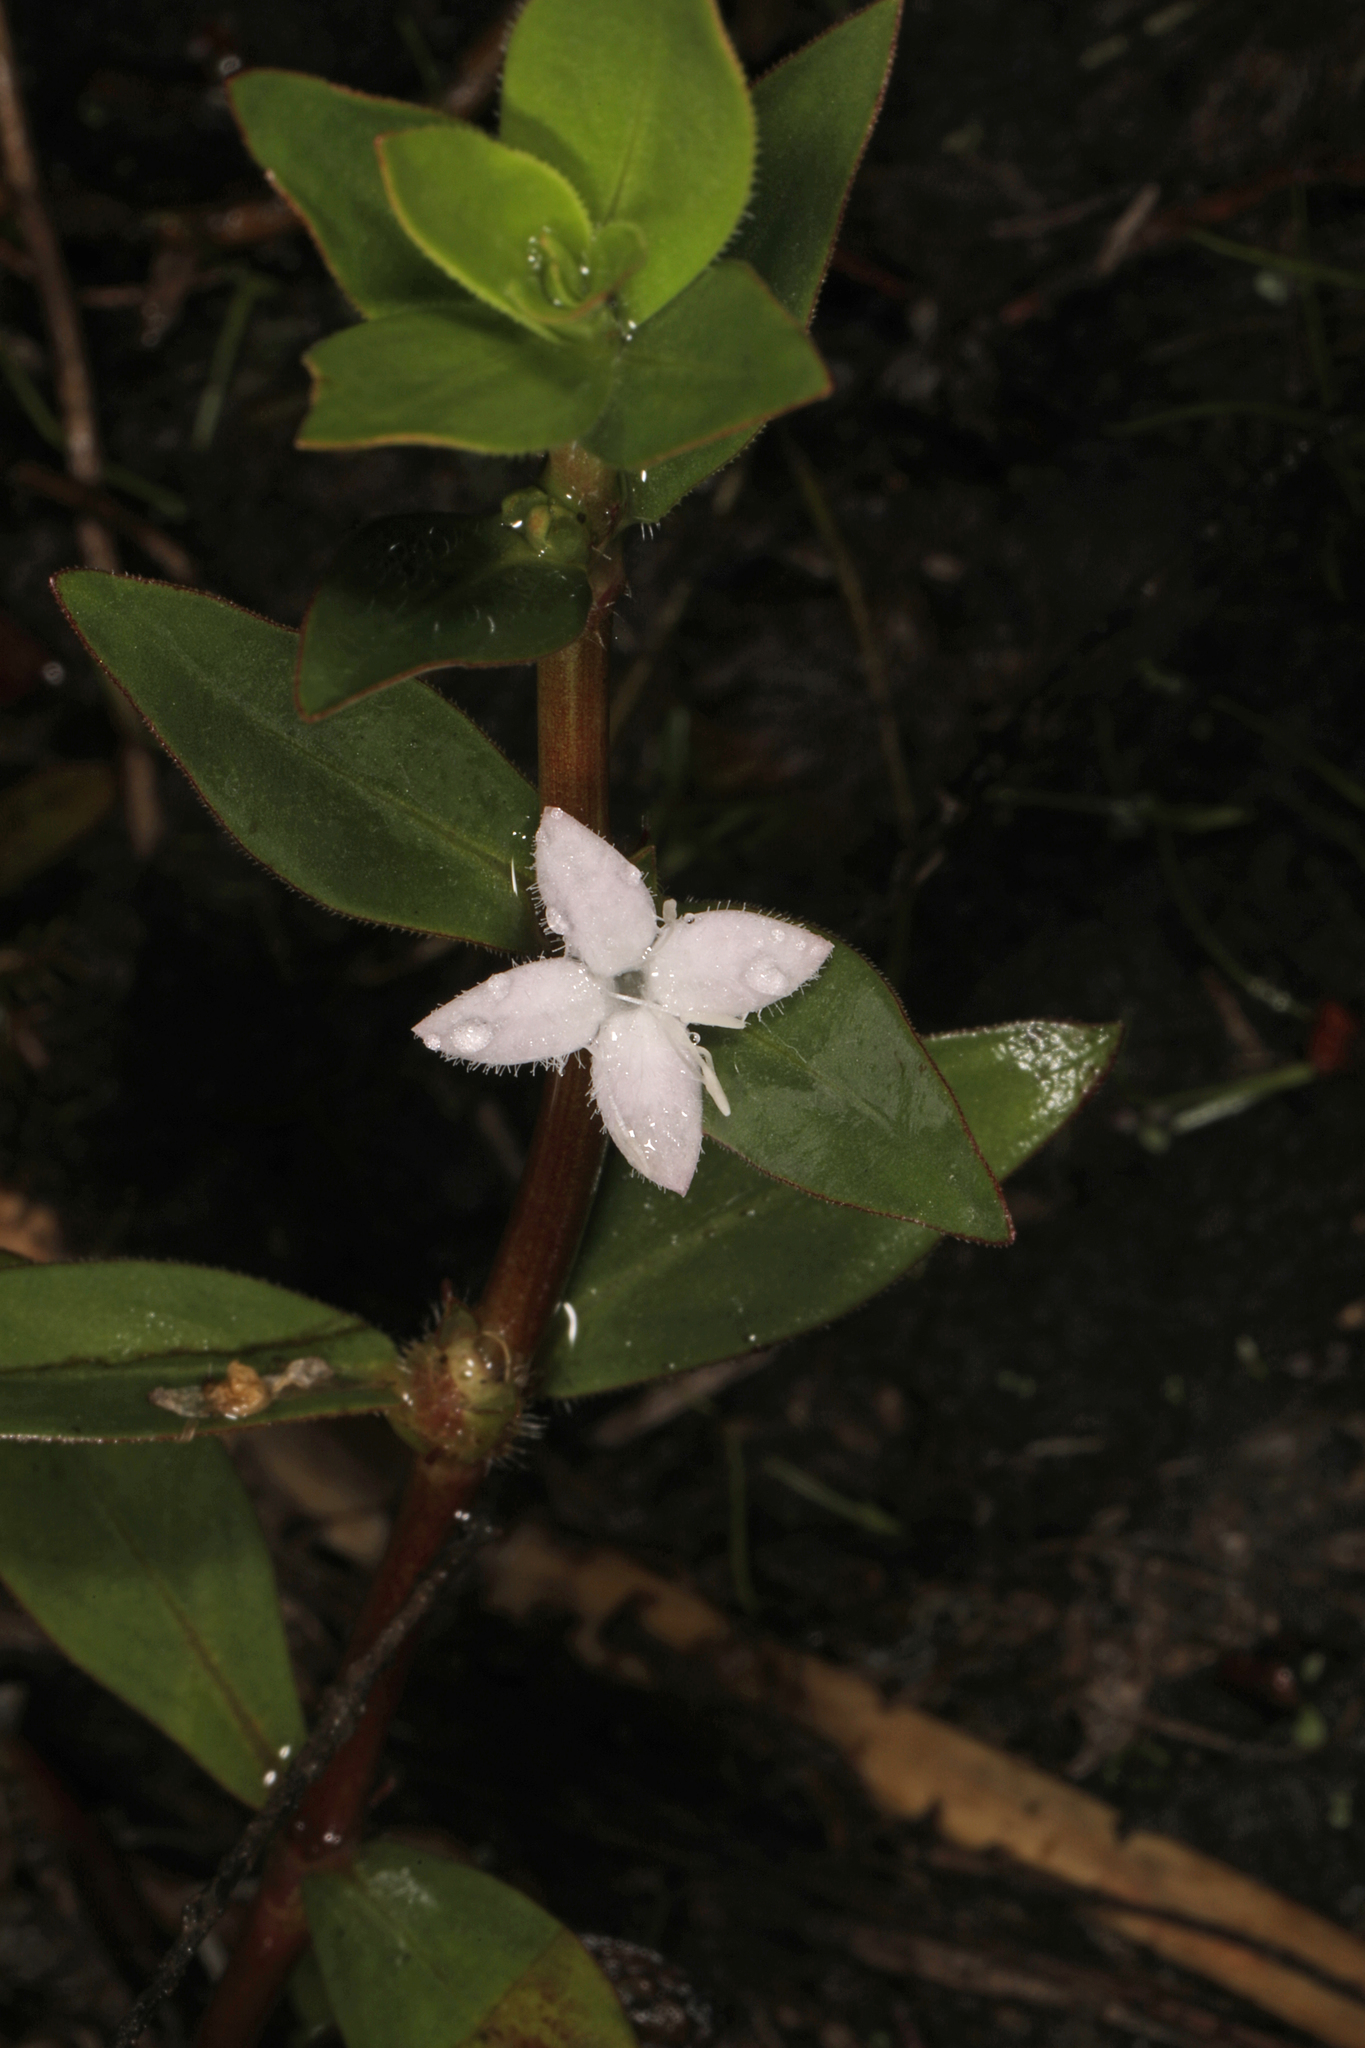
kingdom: Plantae
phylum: Tracheophyta
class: Magnoliopsida
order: Gentianales
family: Rubiaceae
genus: Diodia
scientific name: Diodia virginiana
